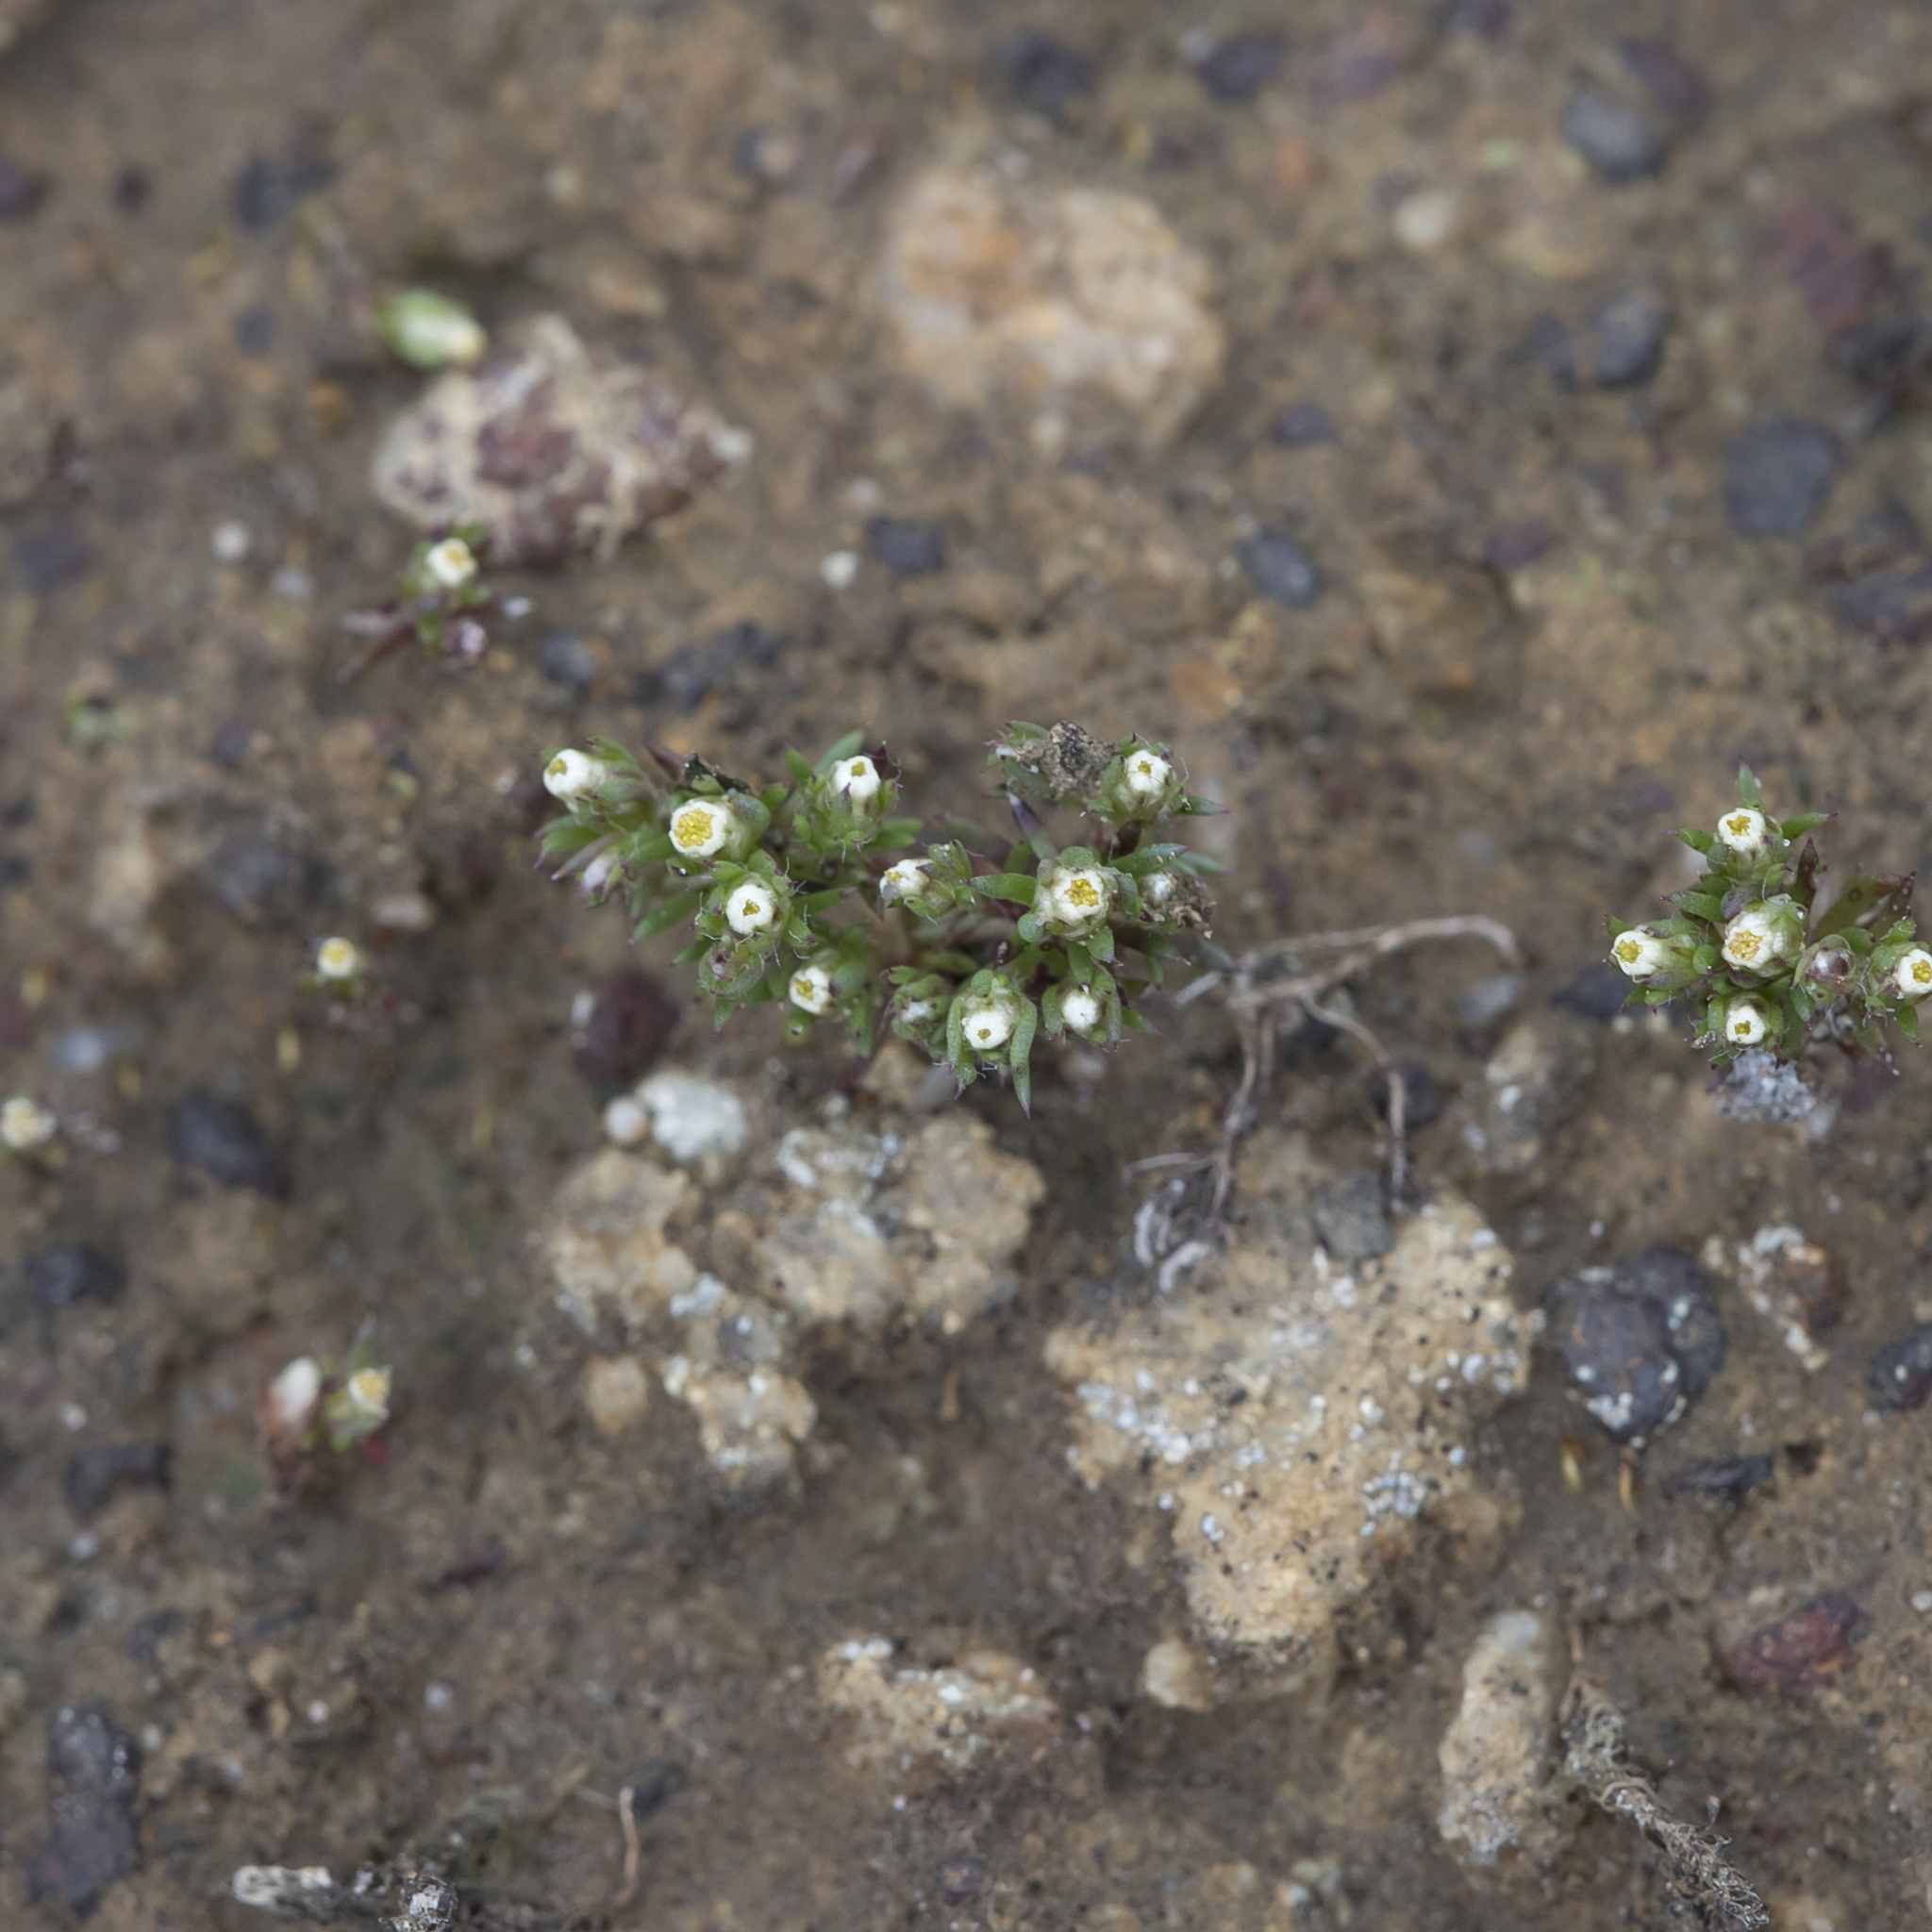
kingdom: Plantae
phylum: Tracheophyta
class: Magnoliopsida
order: Asterales
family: Asteraceae
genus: Hyalosperma
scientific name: Hyalosperma demissum
